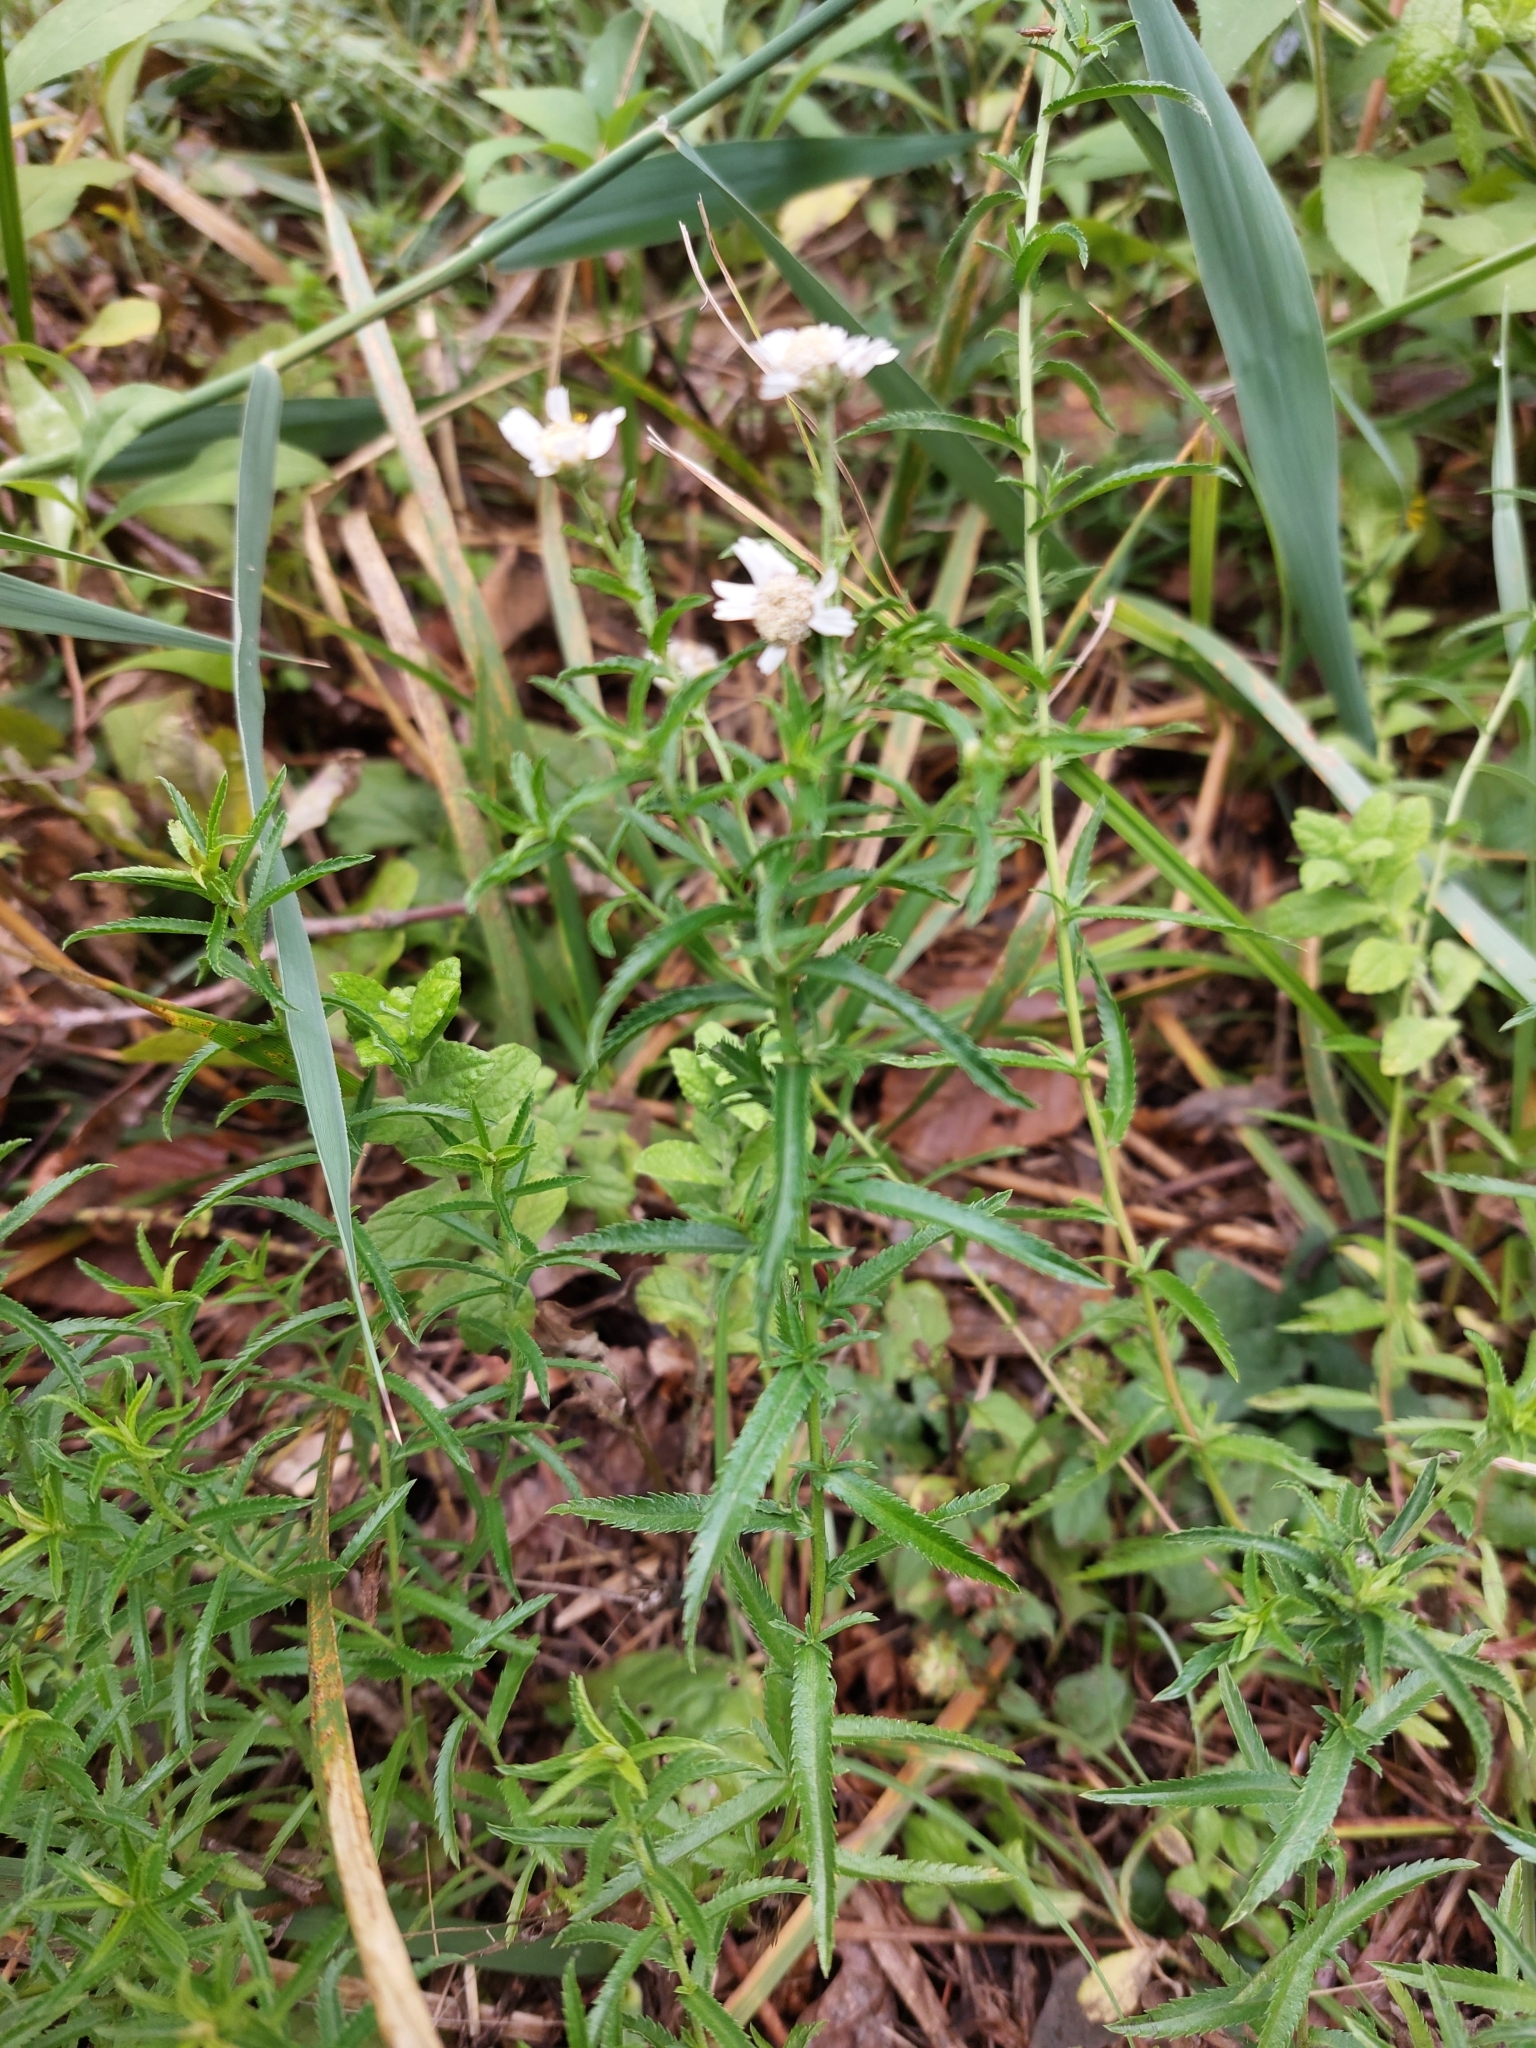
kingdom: Plantae
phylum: Tracheophyta
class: Magnoliopsida
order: Asterales
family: Asteraceae
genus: Achillea
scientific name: Achillea ptarmica
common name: Sneezeweed
